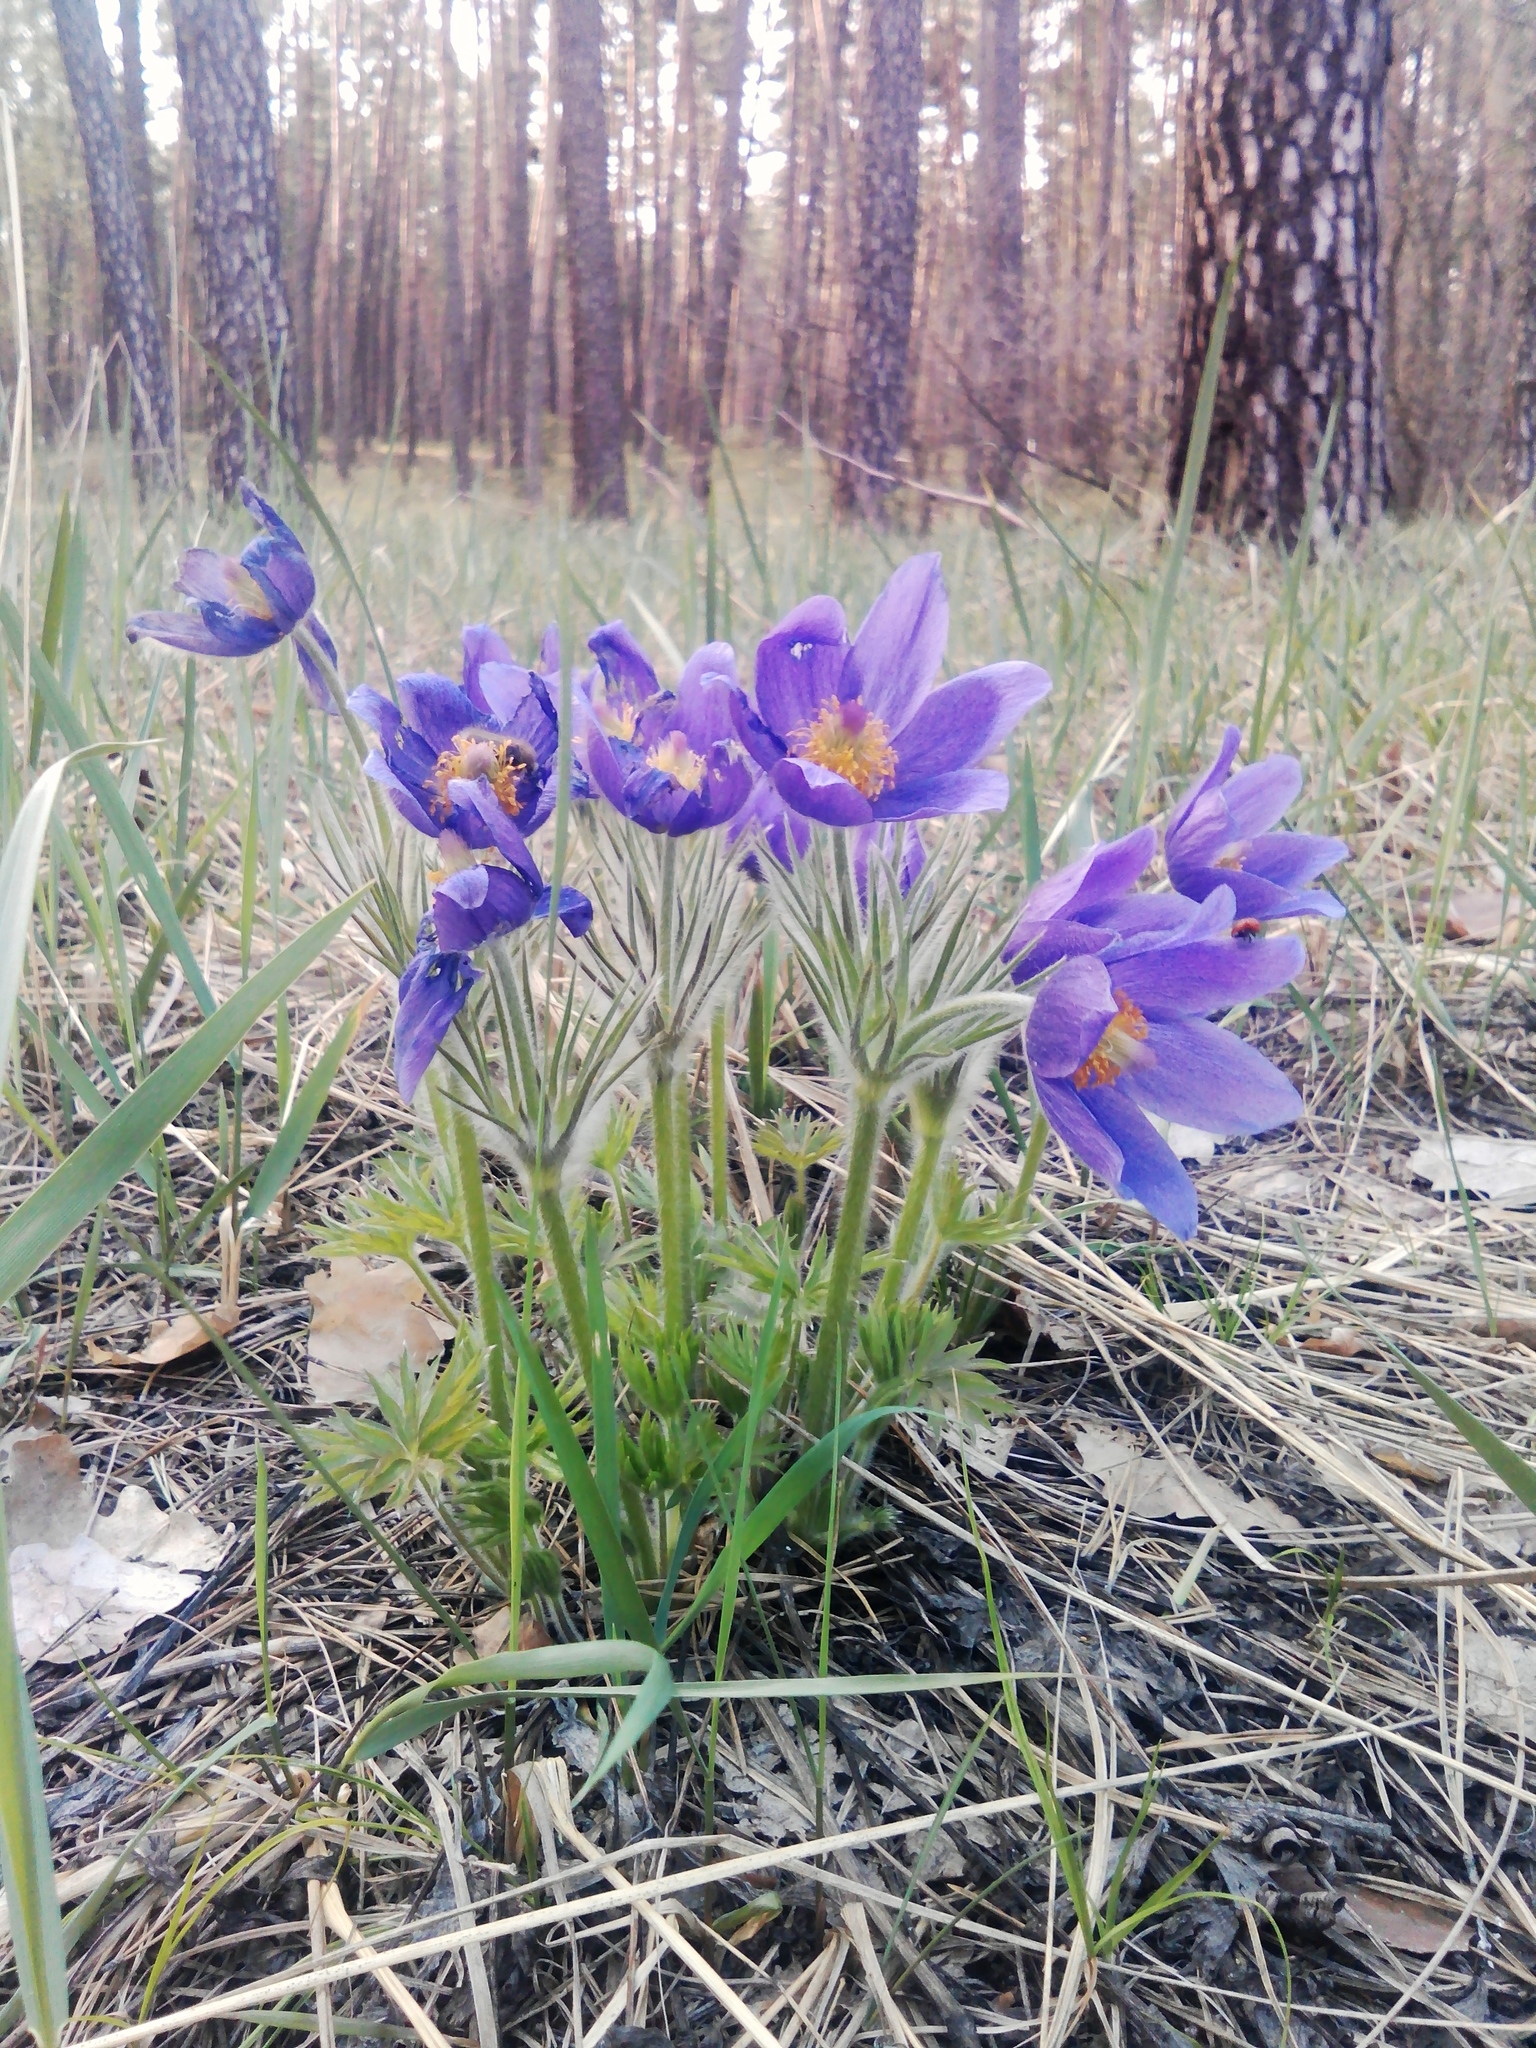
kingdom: Plantae
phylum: Tracheophyta
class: Magnoliopsida
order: Ranunculales
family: Ranunculaceae
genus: Pulsatilla
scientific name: Pulsatilla patens
